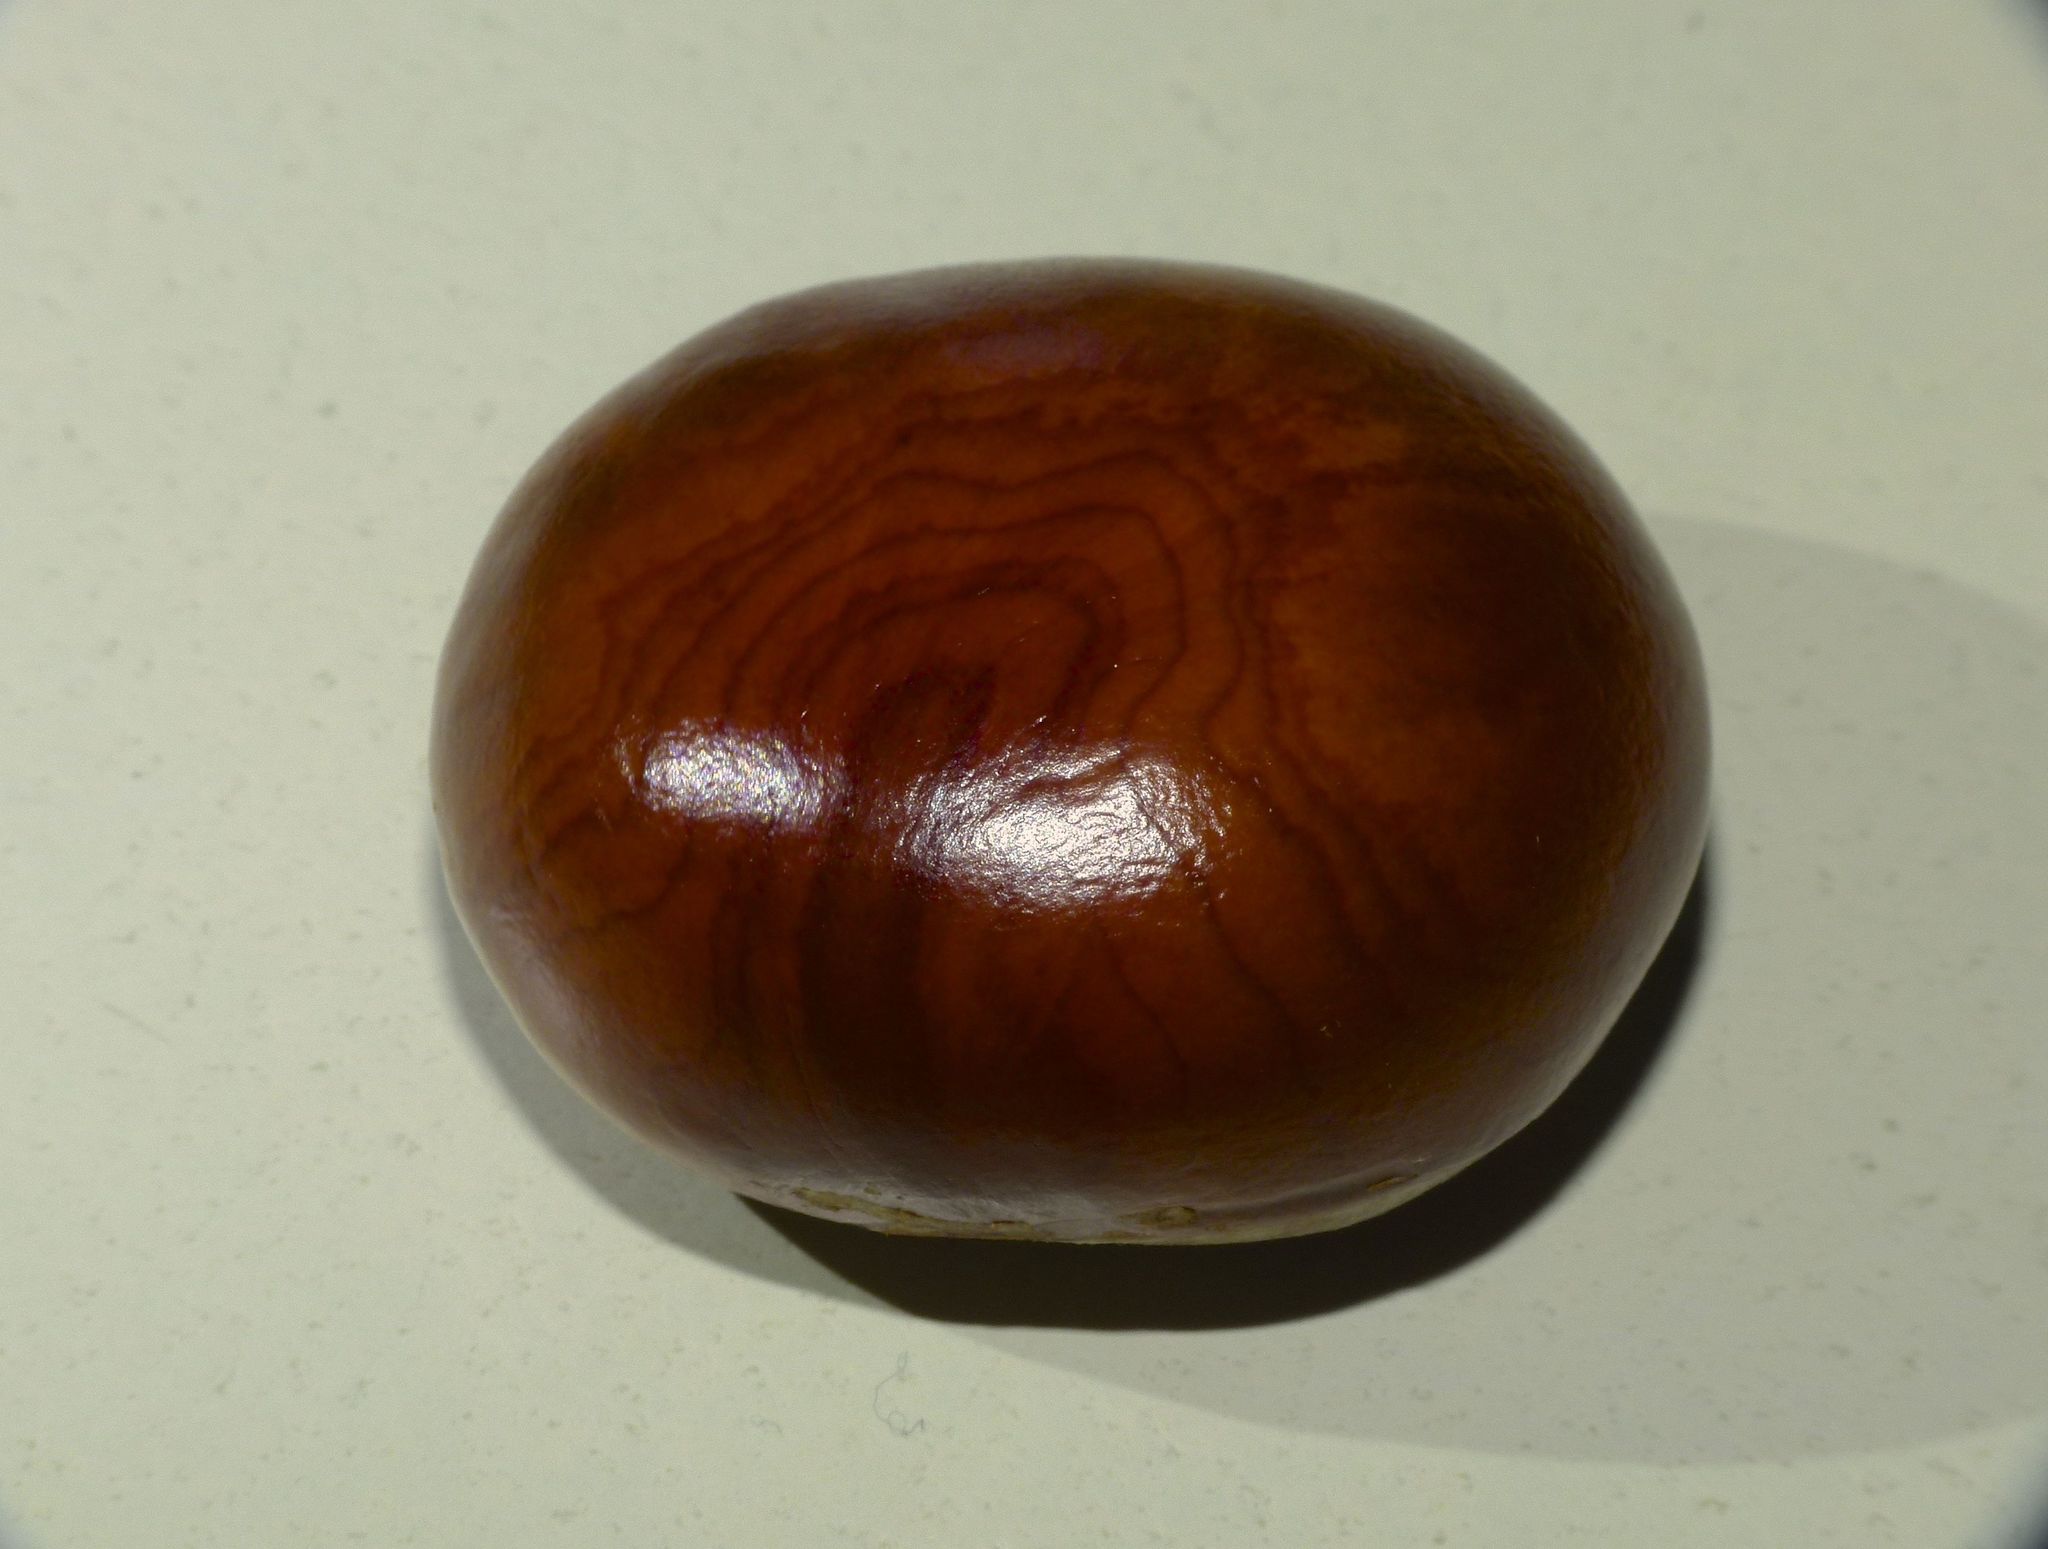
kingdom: Plantae
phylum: Tracheophyta
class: Magnoliopsida
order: Sapindales
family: Sapindaceae
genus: Aesculus
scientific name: Aesculus hippocastanum
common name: Horse-chestnut
